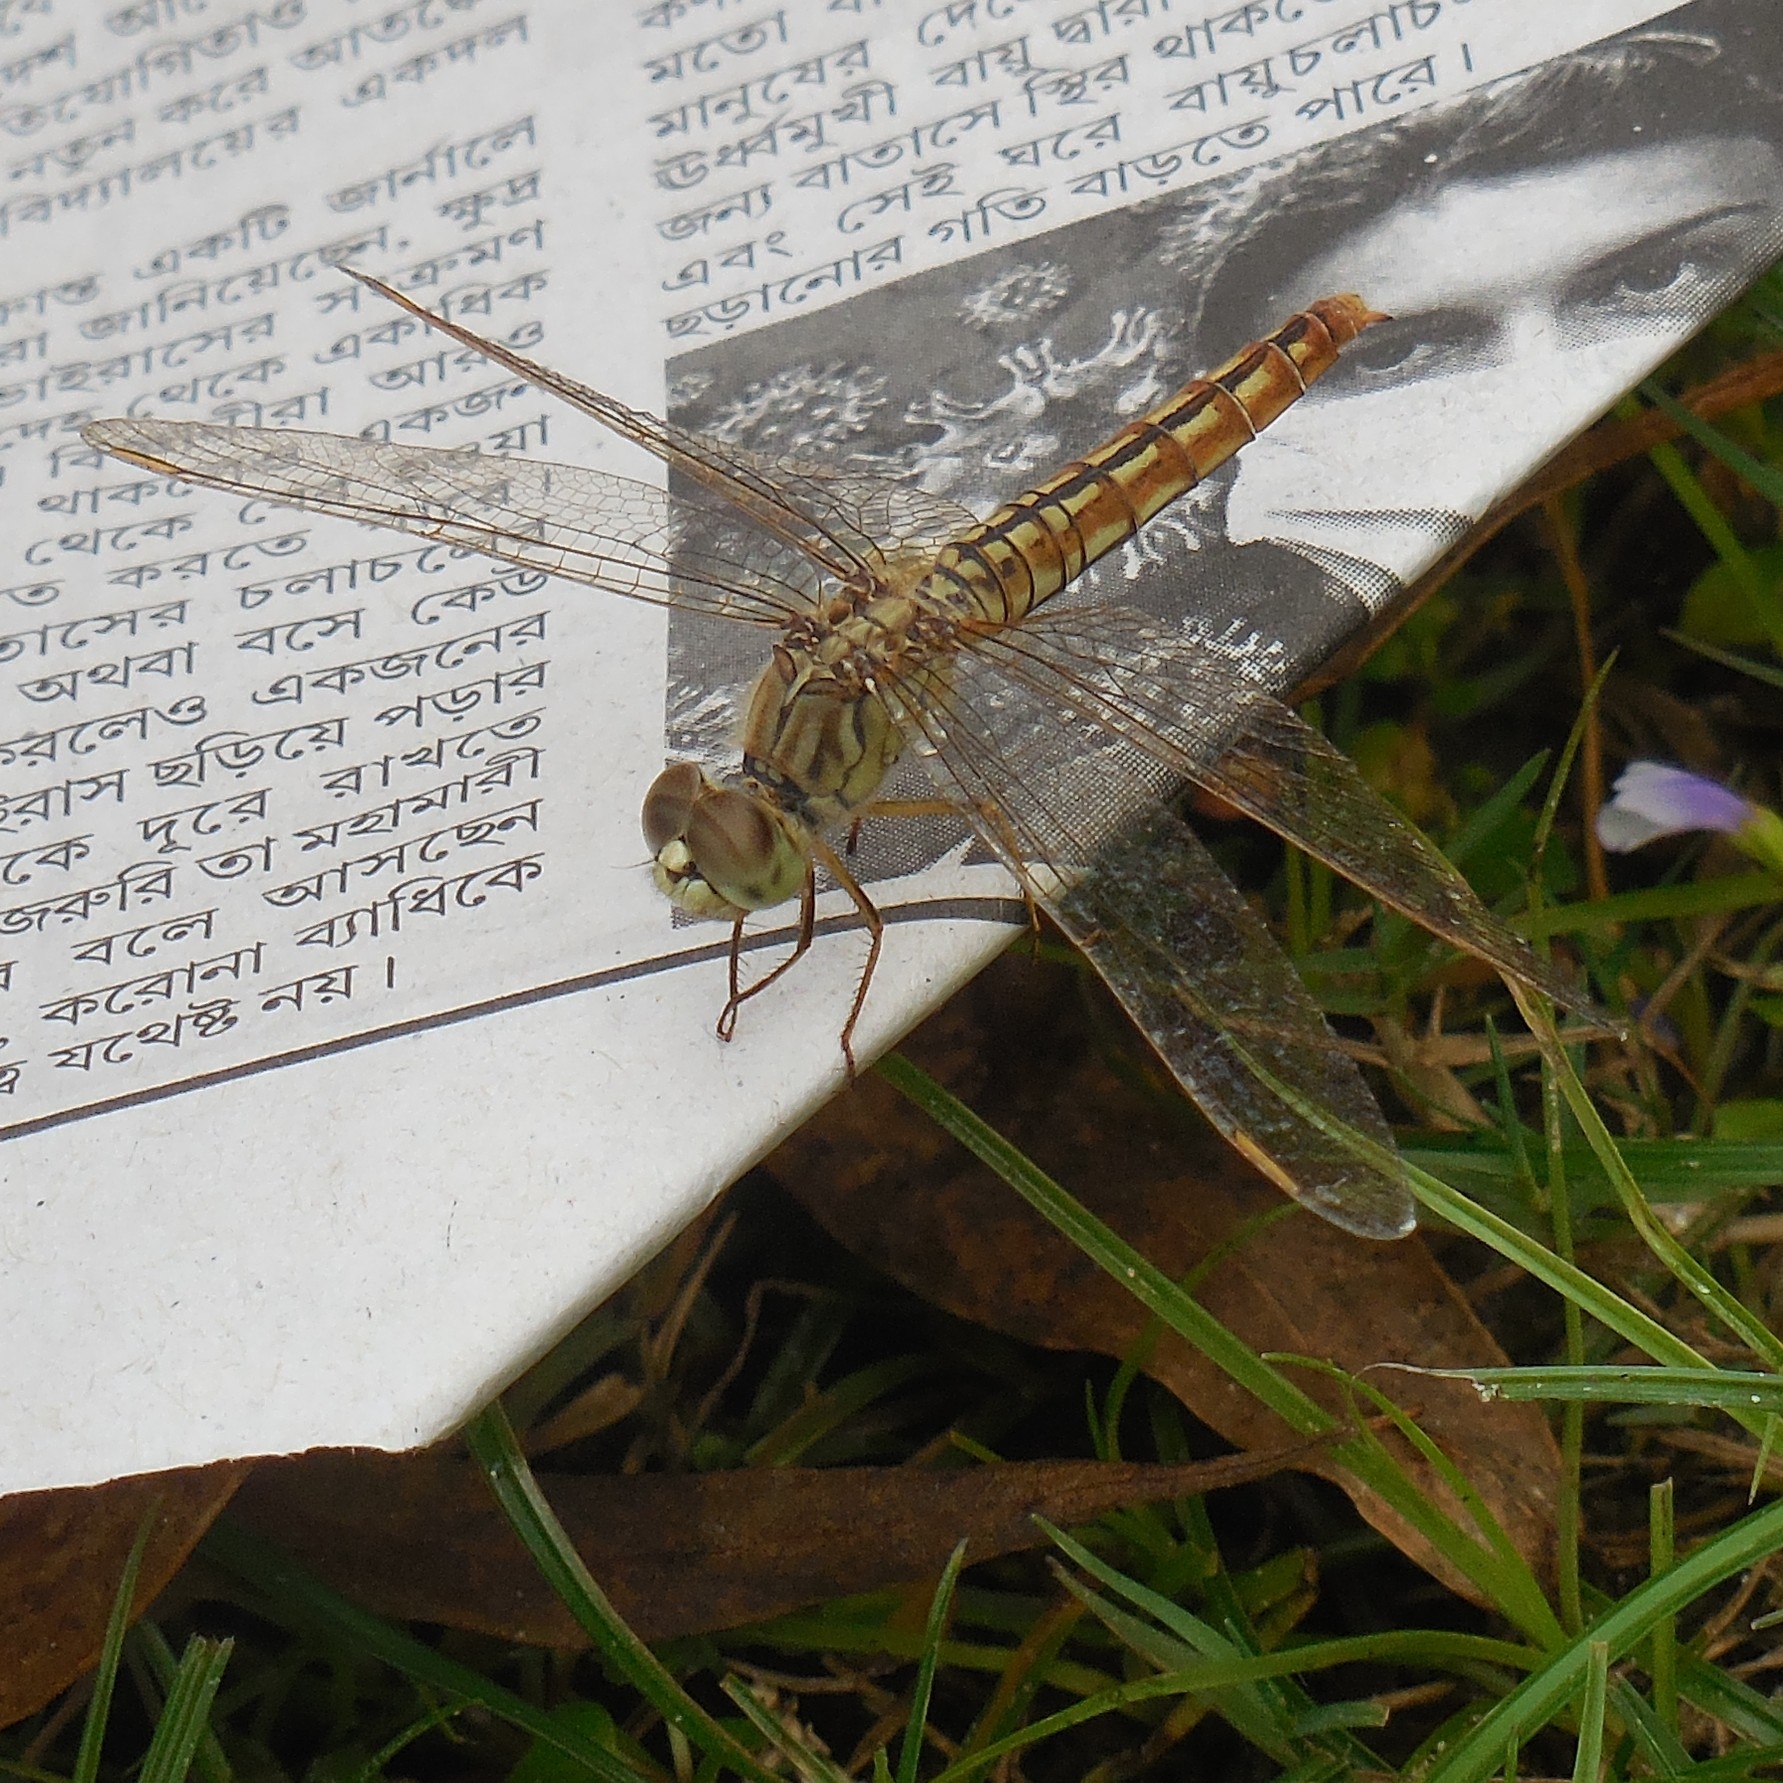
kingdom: Animalia
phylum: Arthropoda
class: Insecta
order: Odonata
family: Libellulidae
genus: Brachythemis
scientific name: Brachythemis contaminata
